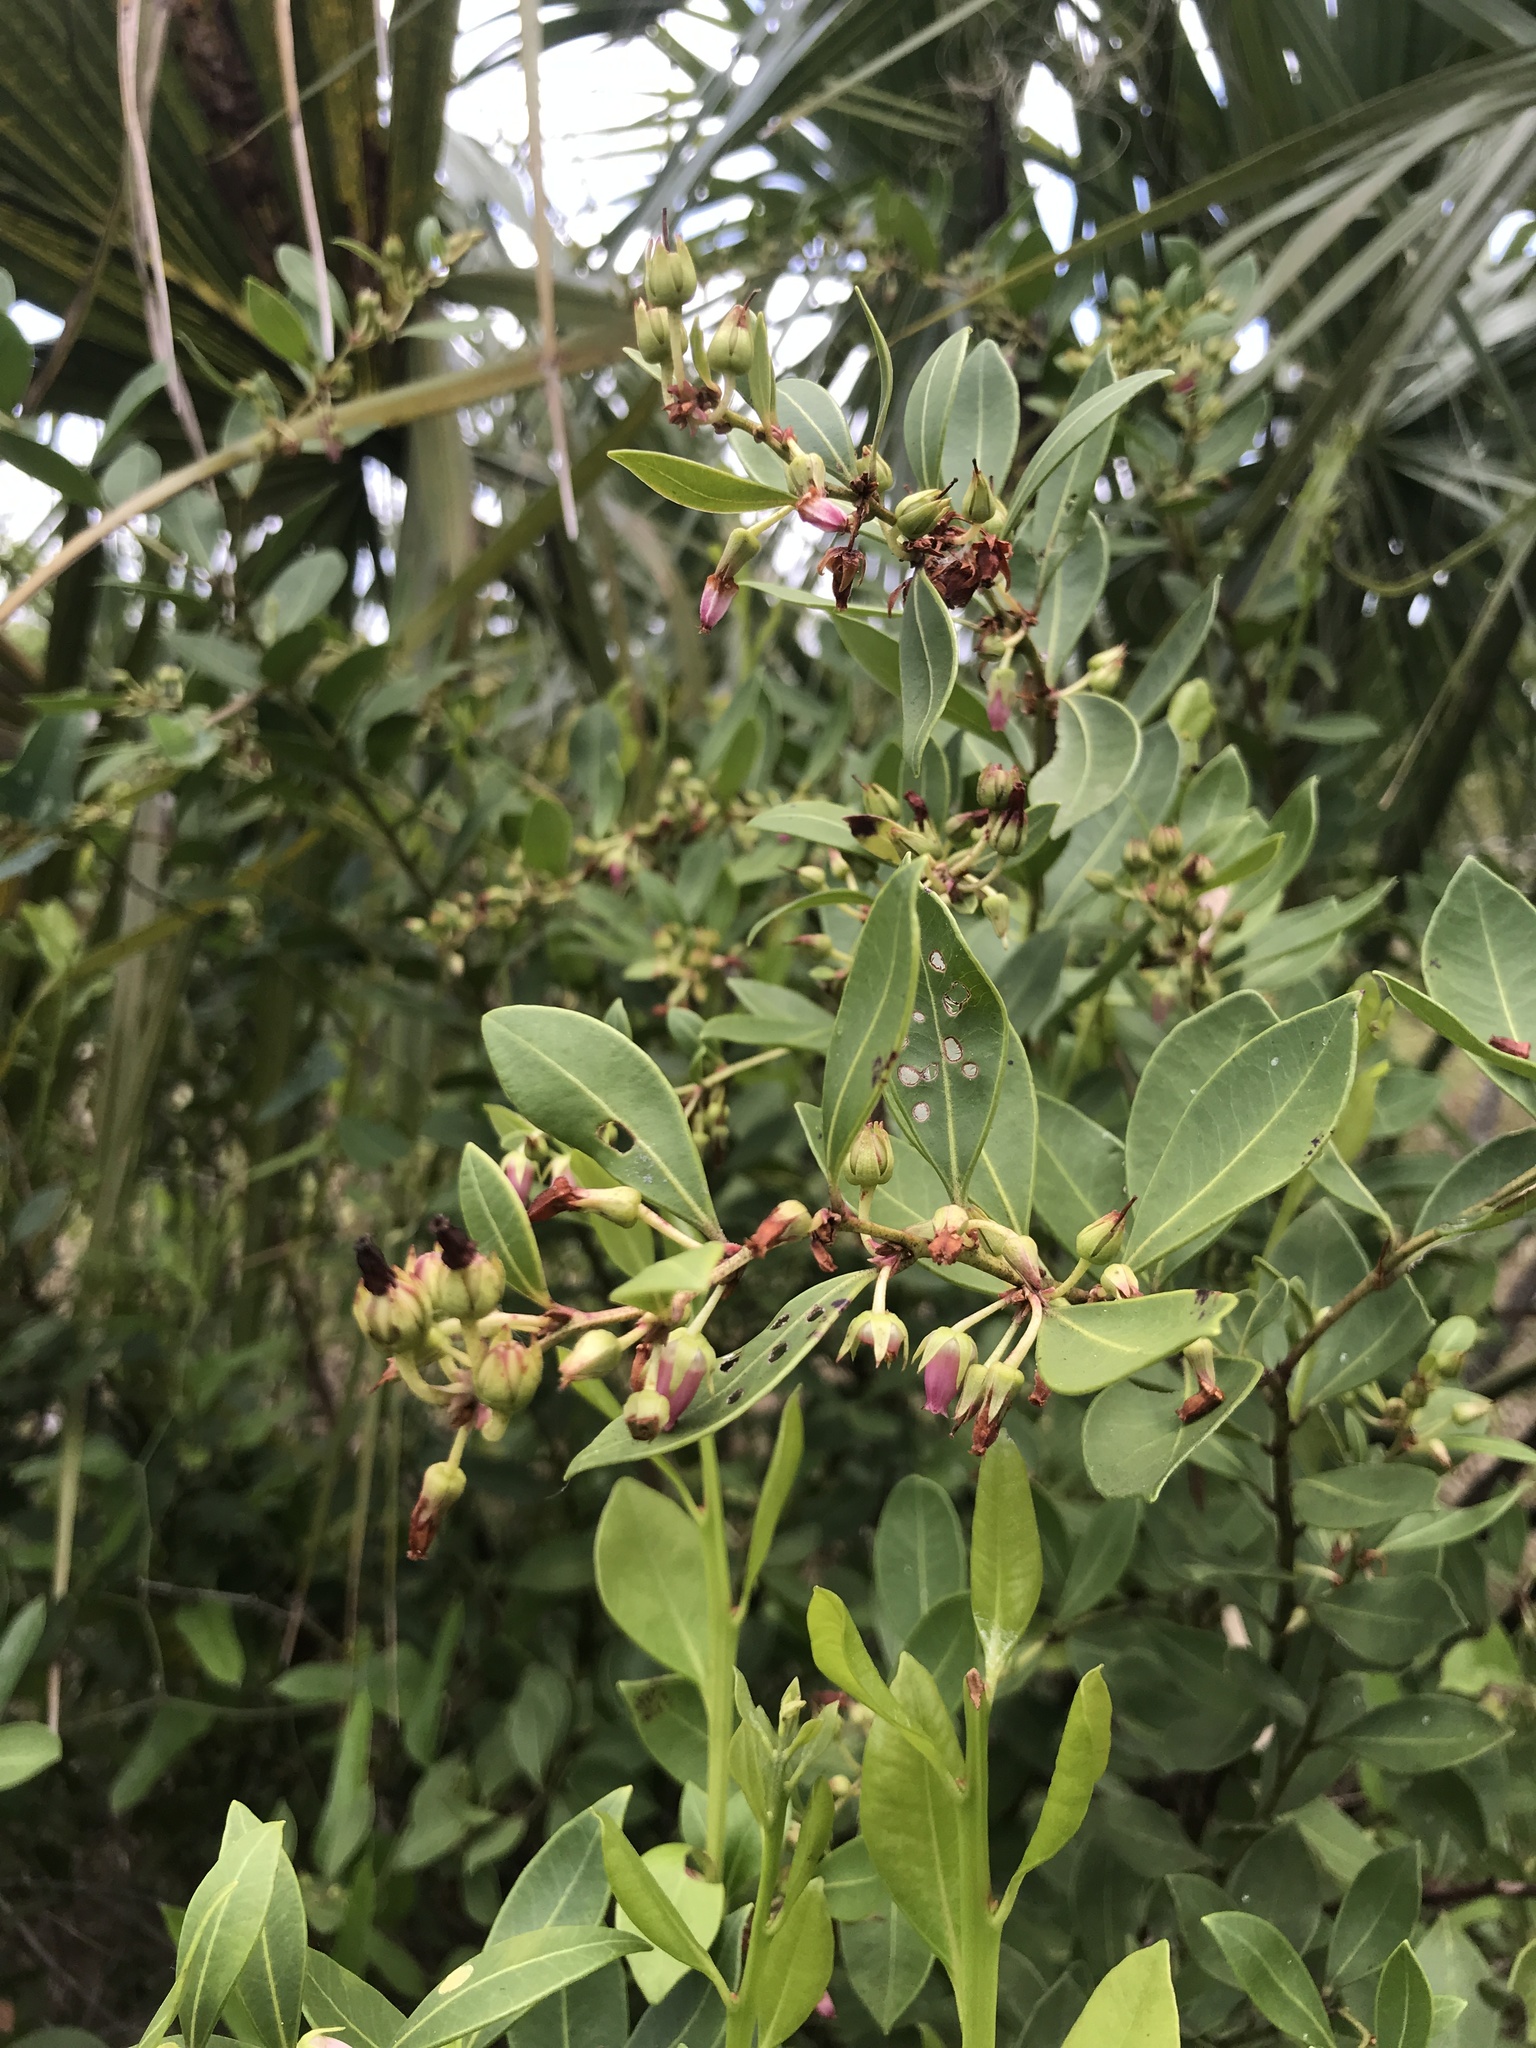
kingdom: Plantae
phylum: Tracheophyta
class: Magnoliopsida
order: Ericales
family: Ericaceae
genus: Lyonia
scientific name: Lyonia lucida
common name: Fetterbush
